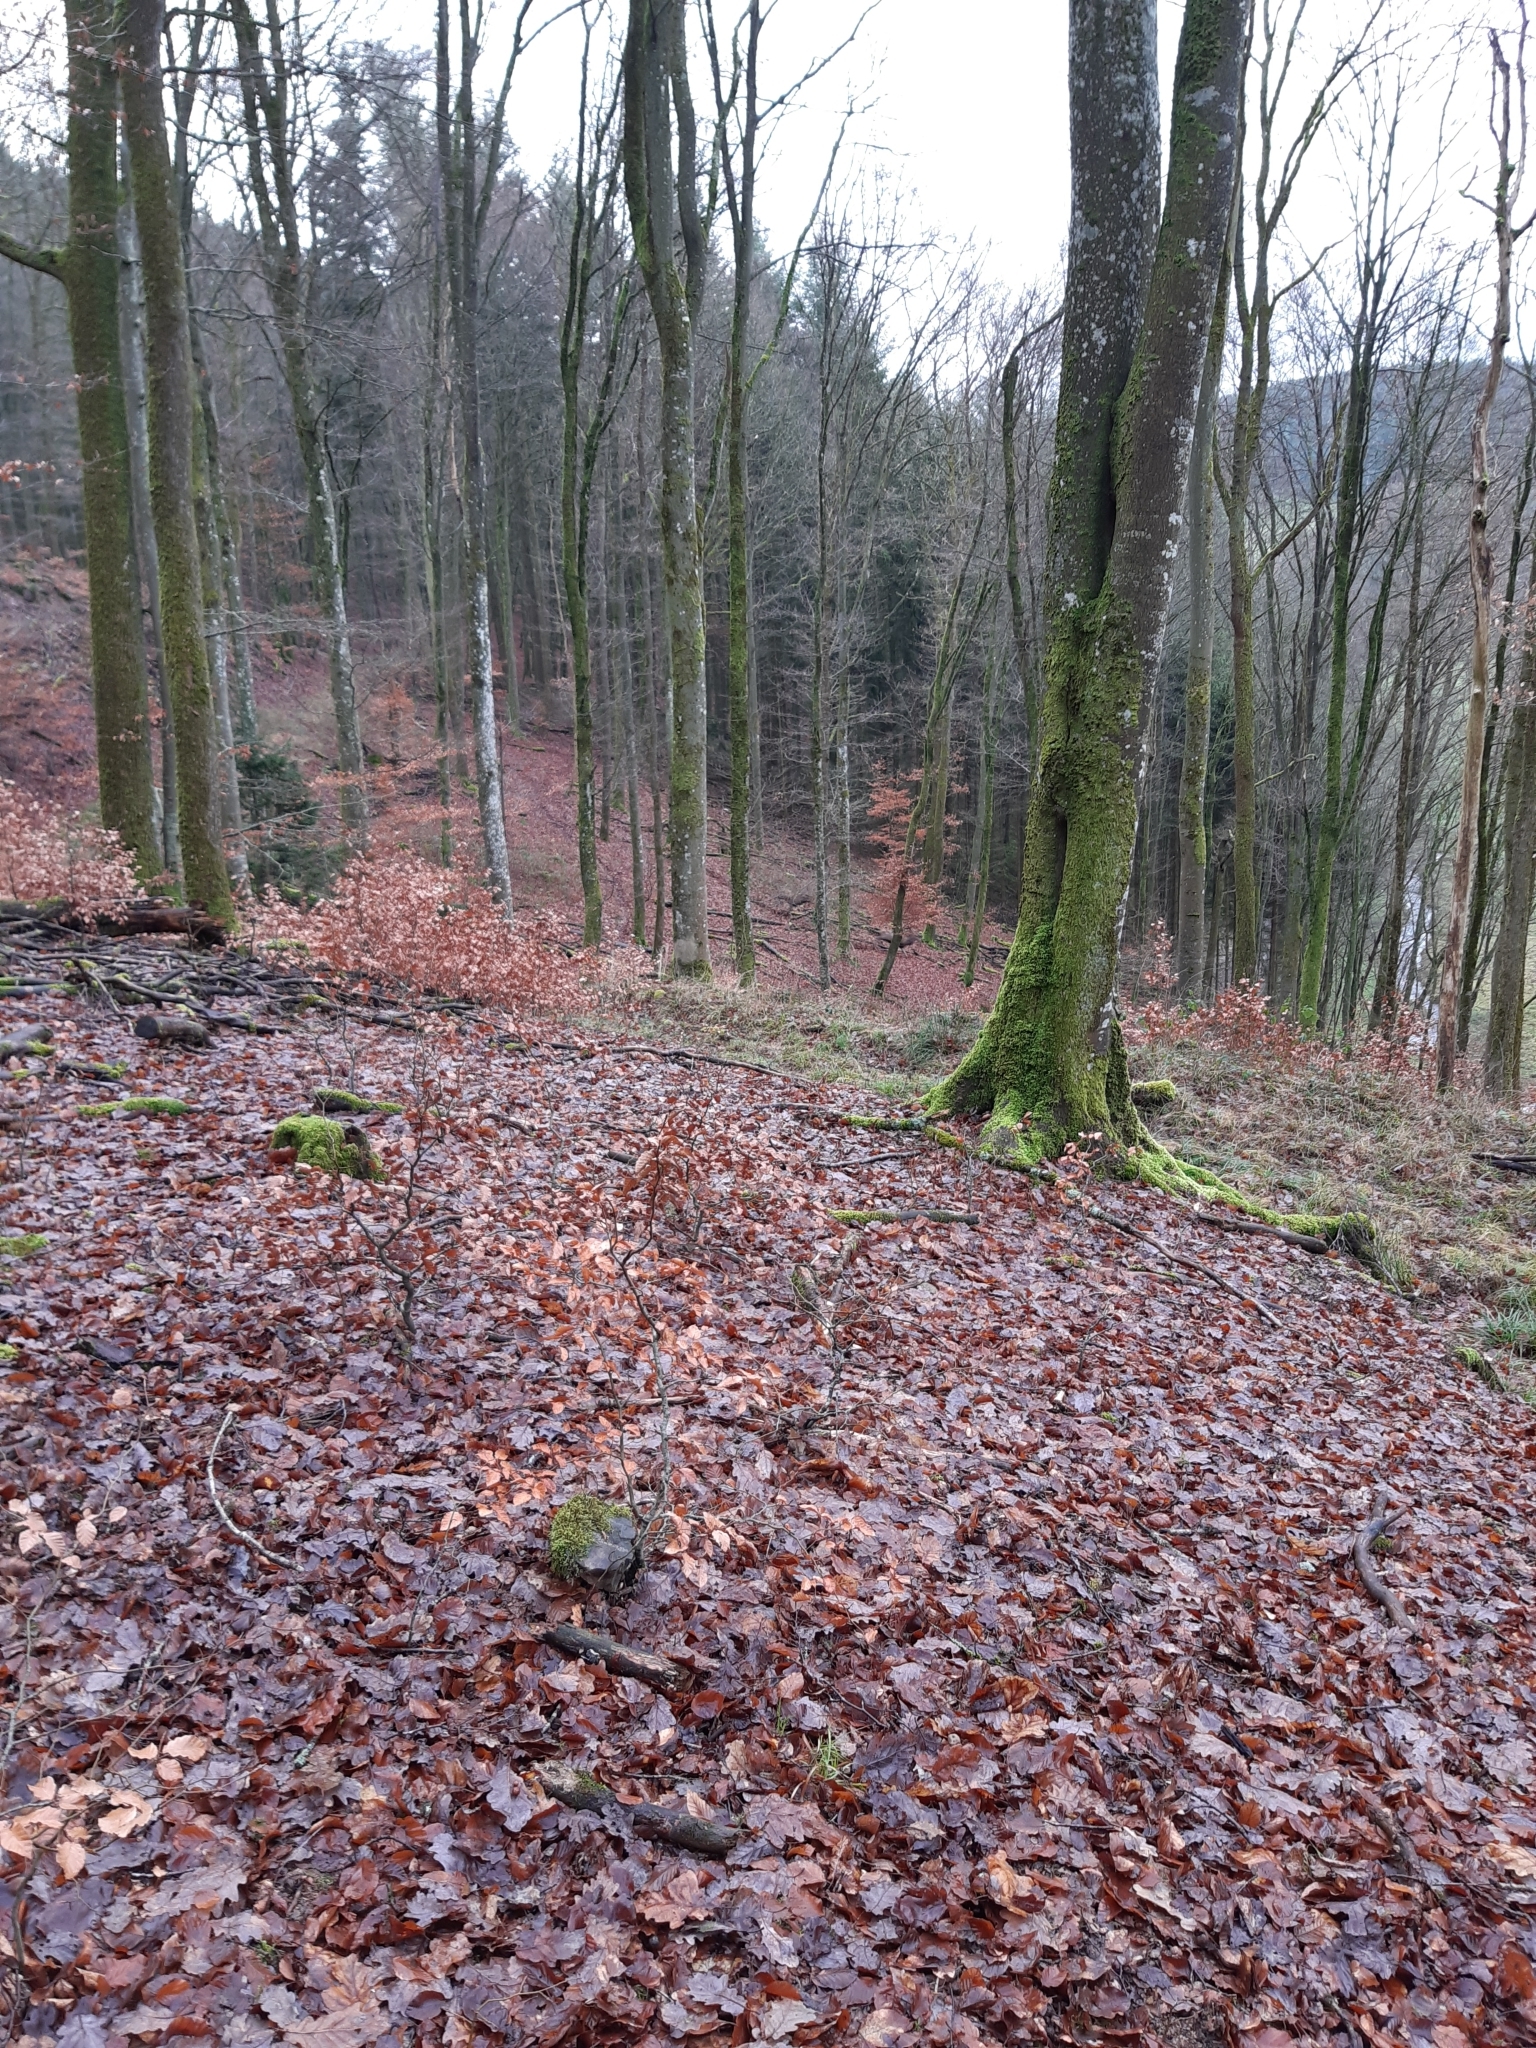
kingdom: Animalia
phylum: Chordata
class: Mammalia
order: Artiodactyla
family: Cervidae
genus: Cervus
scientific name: Cervus elaphus
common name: Red deer
